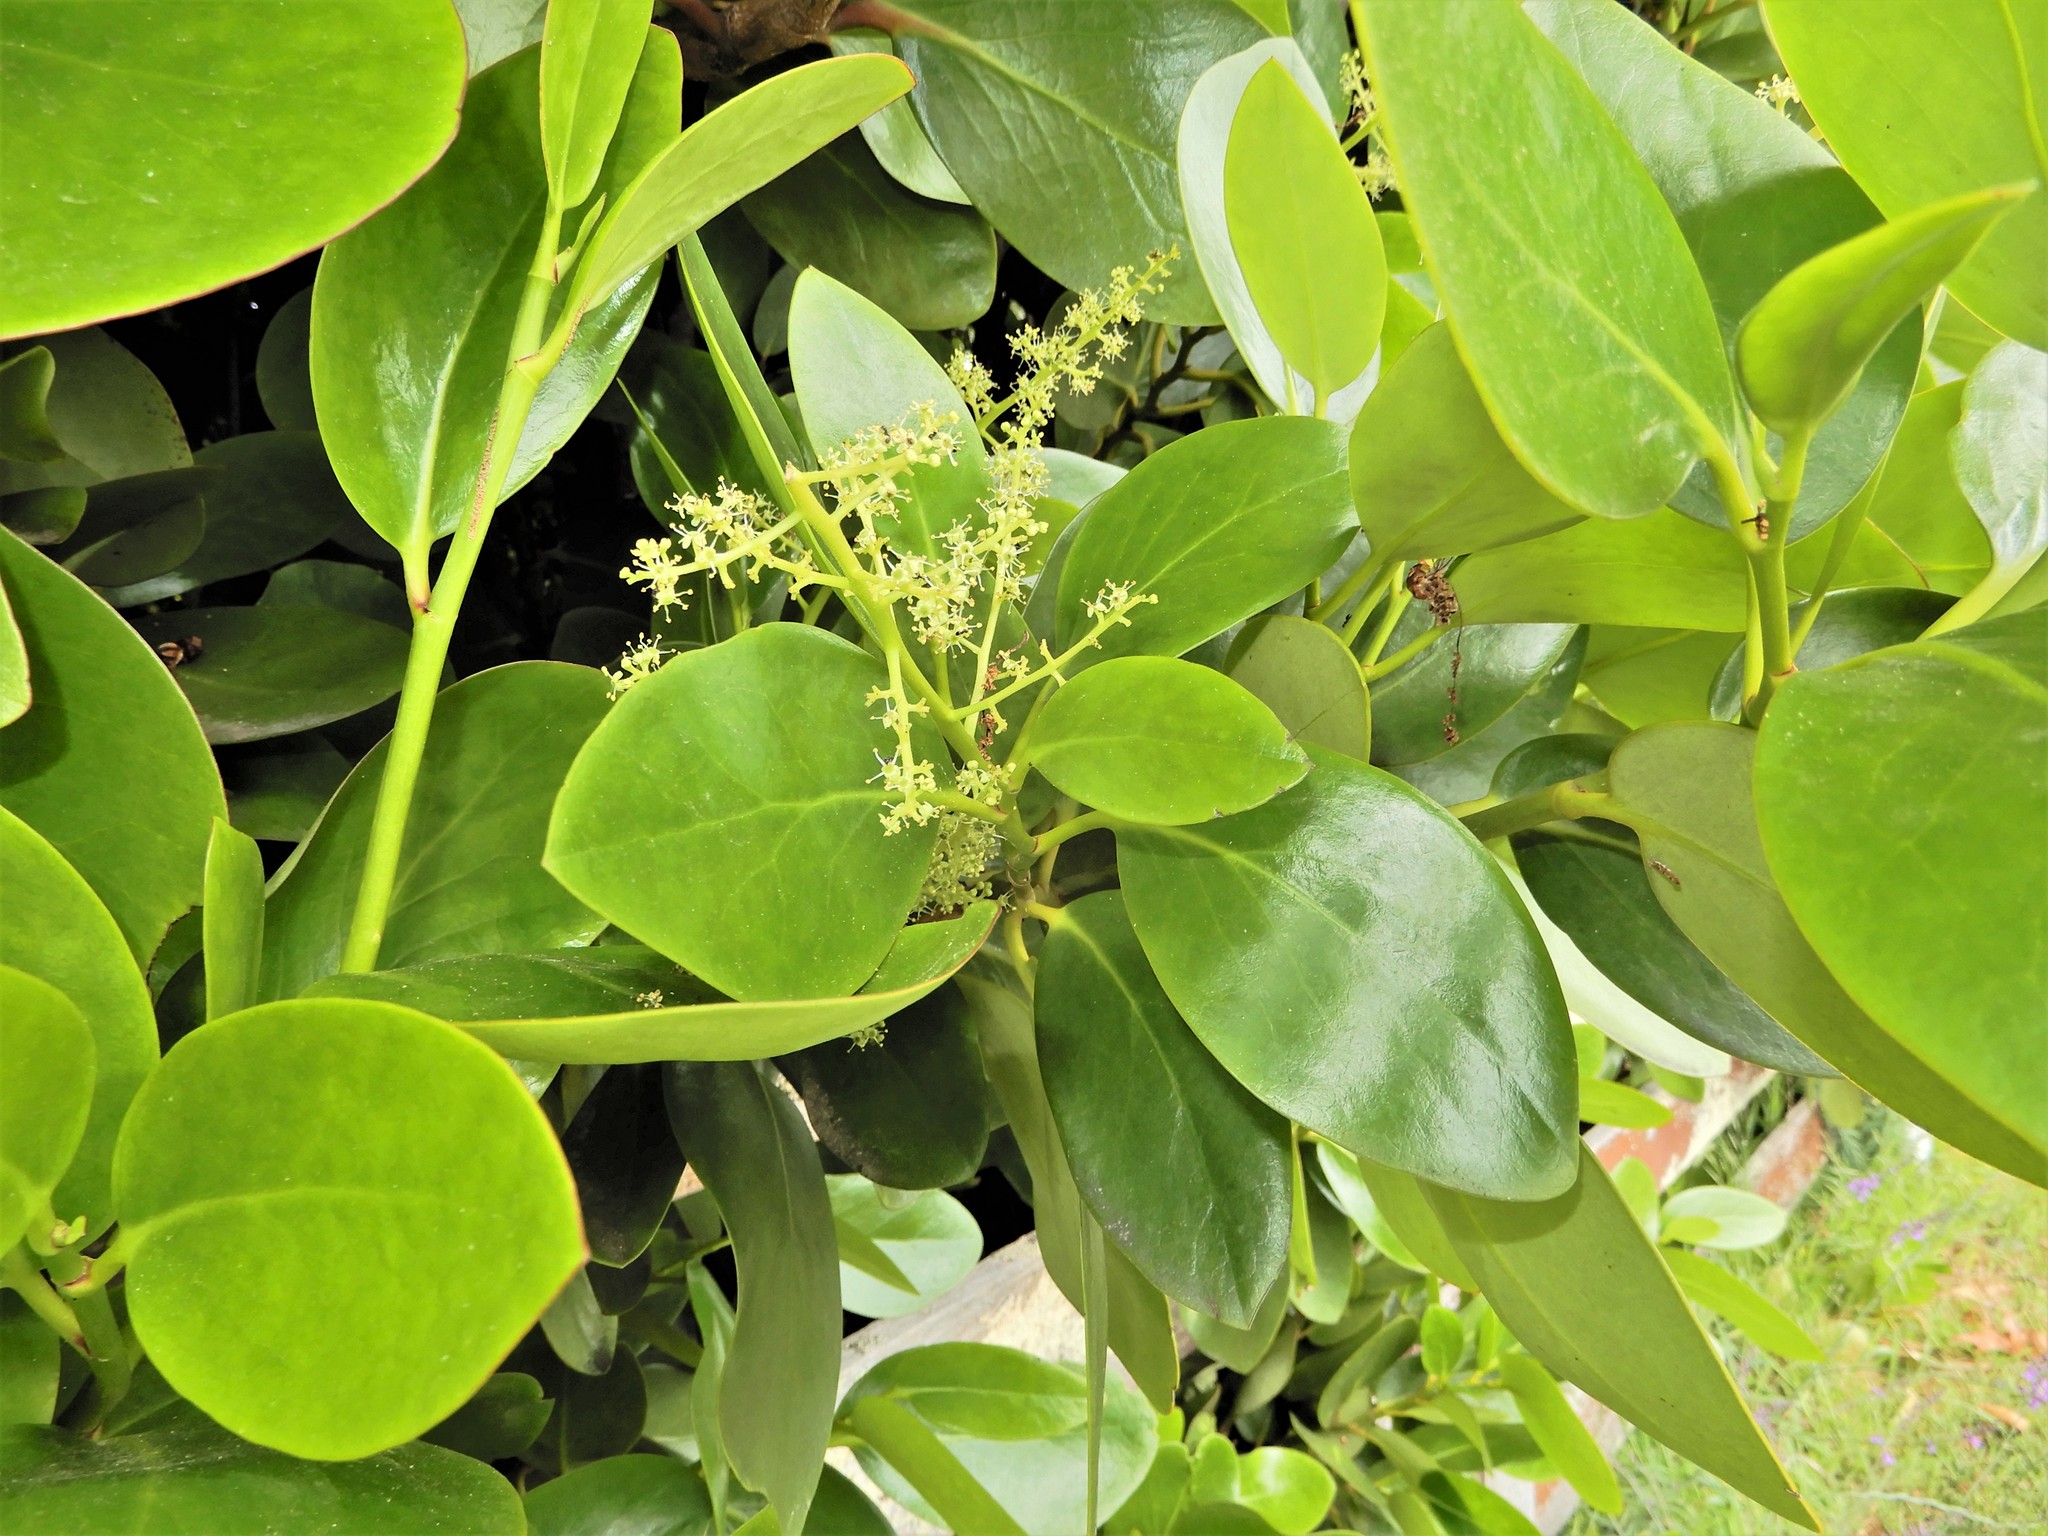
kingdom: Plantae
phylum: Tracheophyta
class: Magnoliopsida
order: Apiales
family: Griseliniaceae
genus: Griselinia
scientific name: Griselinia lucida
